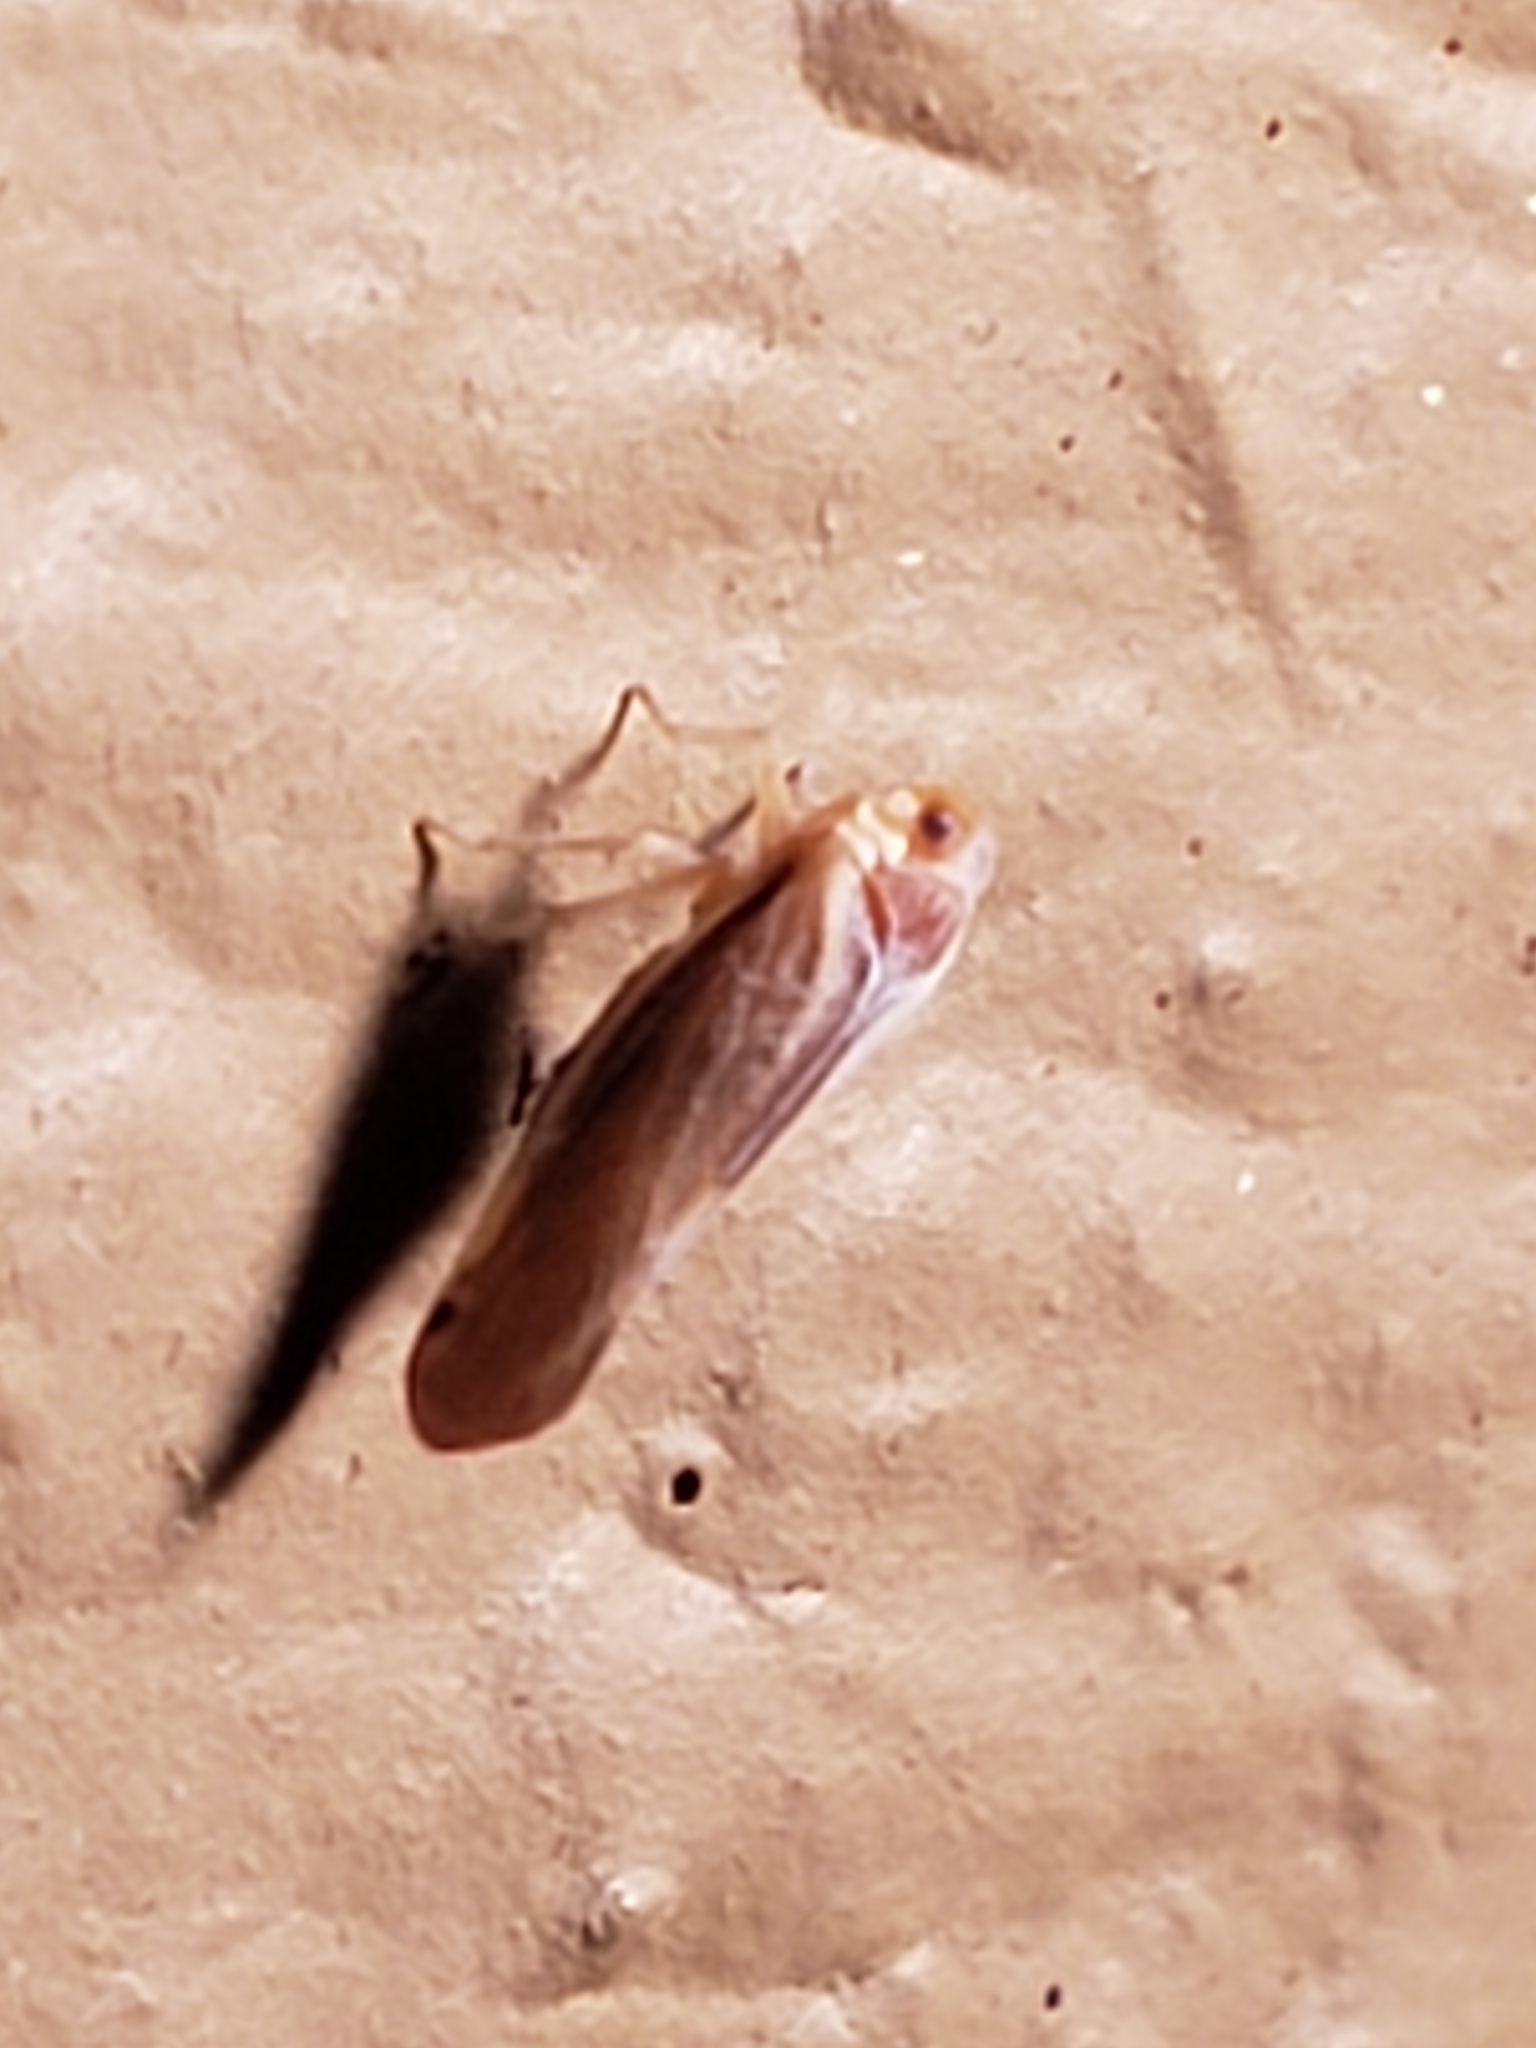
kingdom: Animalia
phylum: Arthropoda
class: Insecta
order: Hemiptera
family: Derbidae
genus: Omolicna
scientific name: Omolicna uhleri
